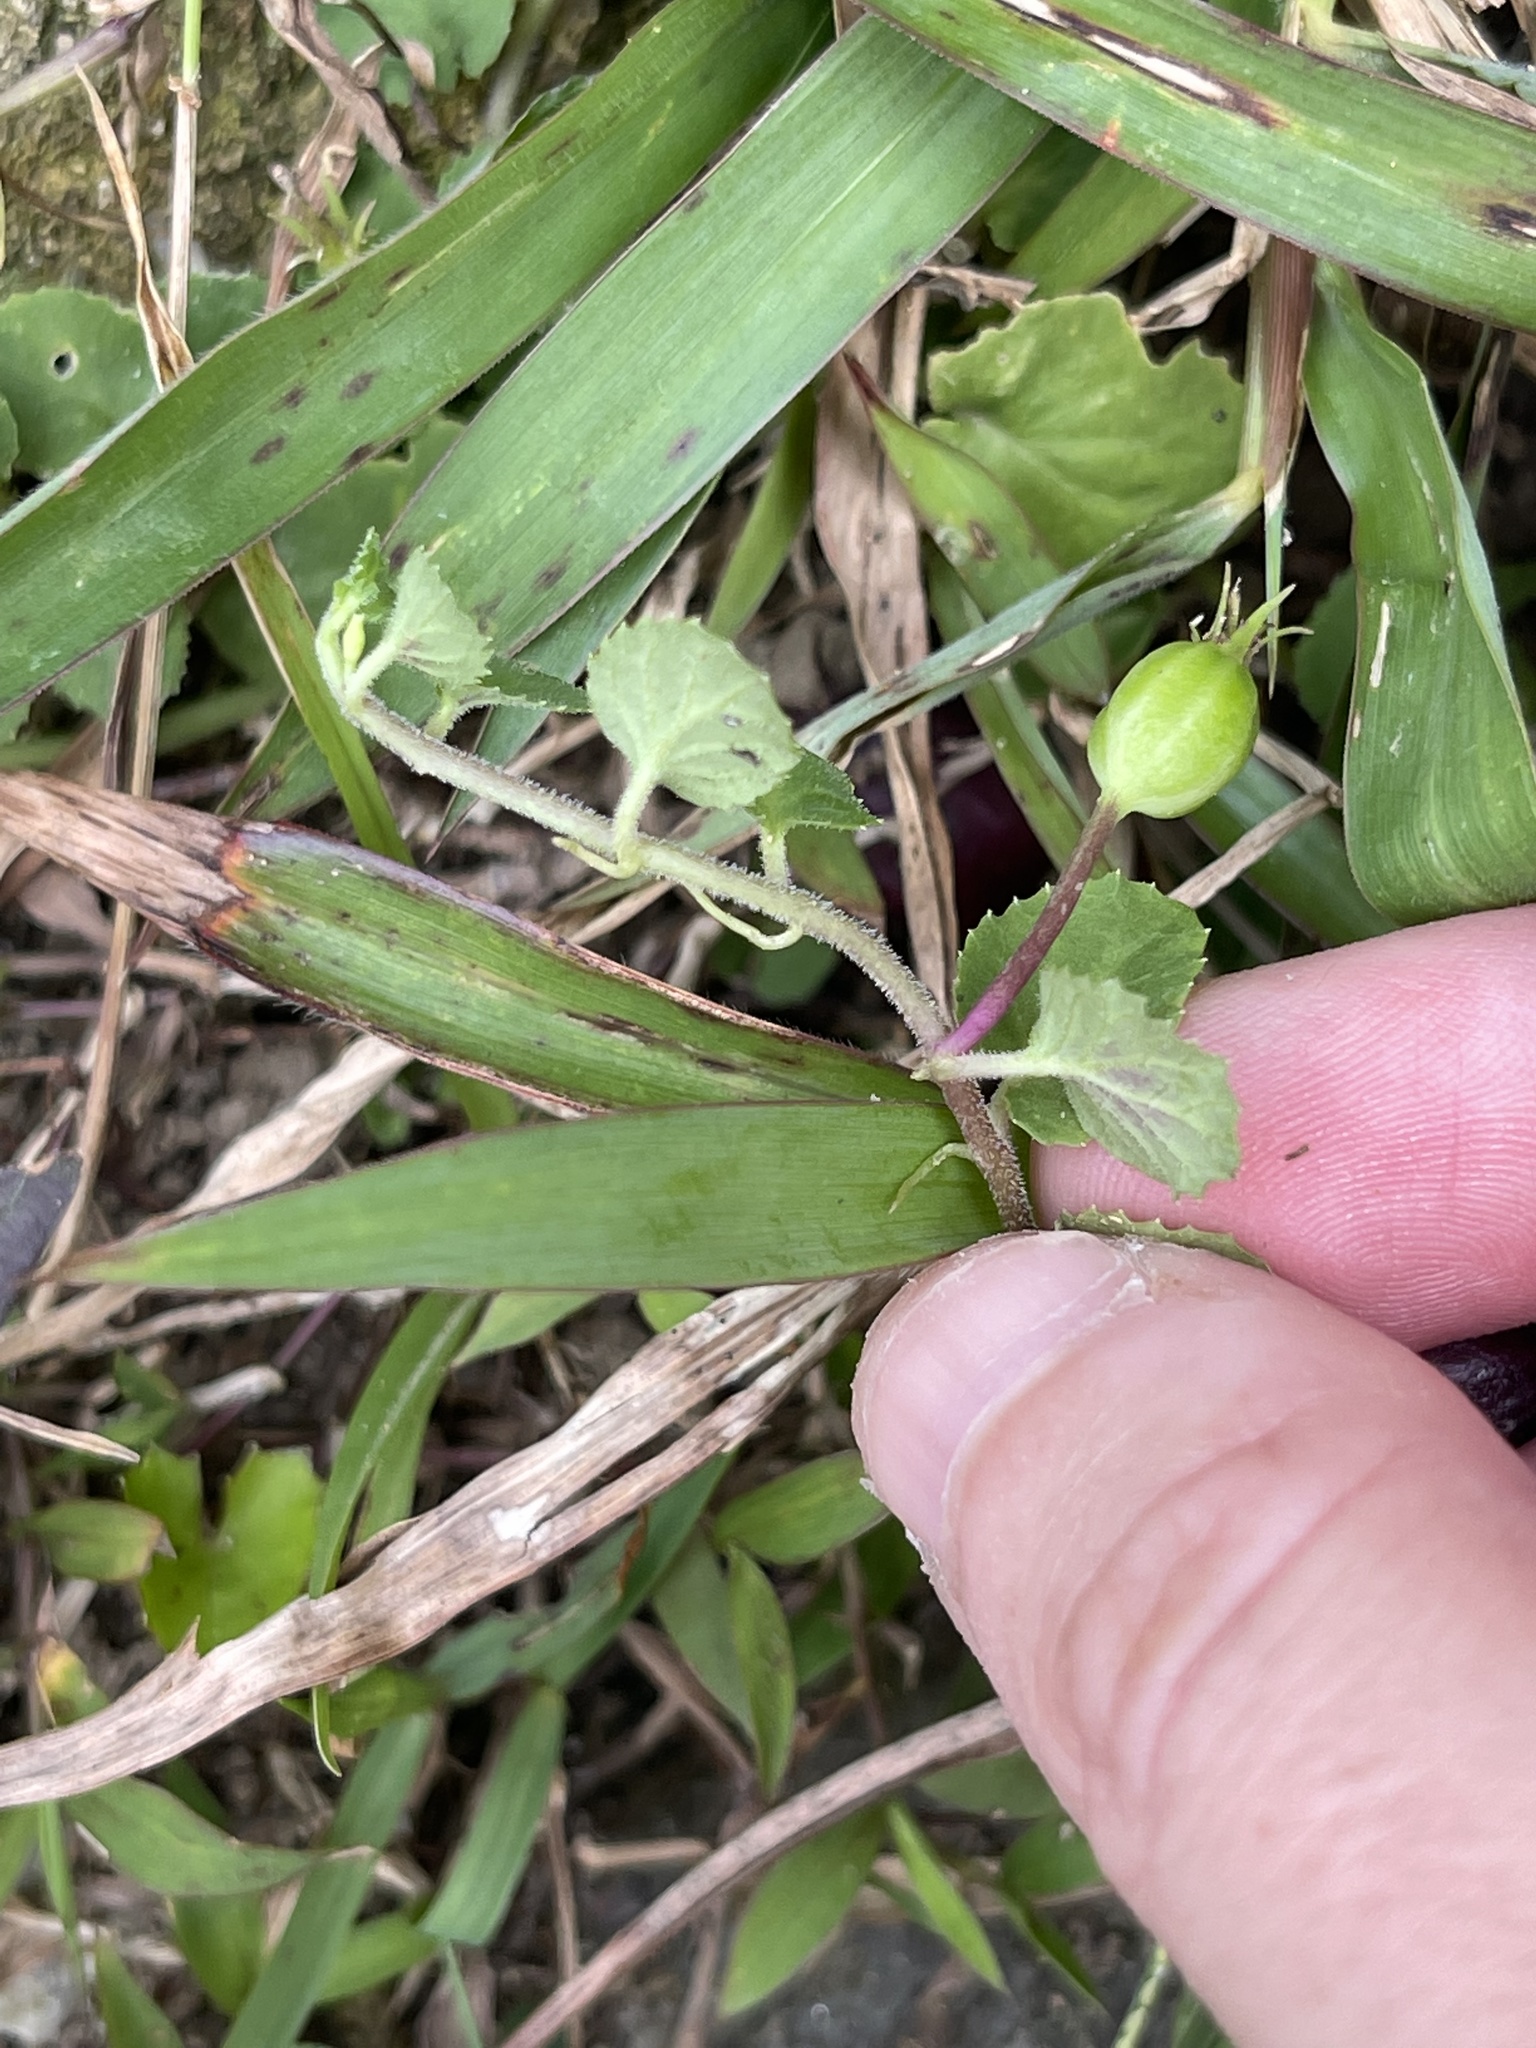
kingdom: Plantae
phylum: Tracheophyta
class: Magnoliopsida
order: Asterales
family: Campanulaceae
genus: Lobelia
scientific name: Lobelia nummularia
